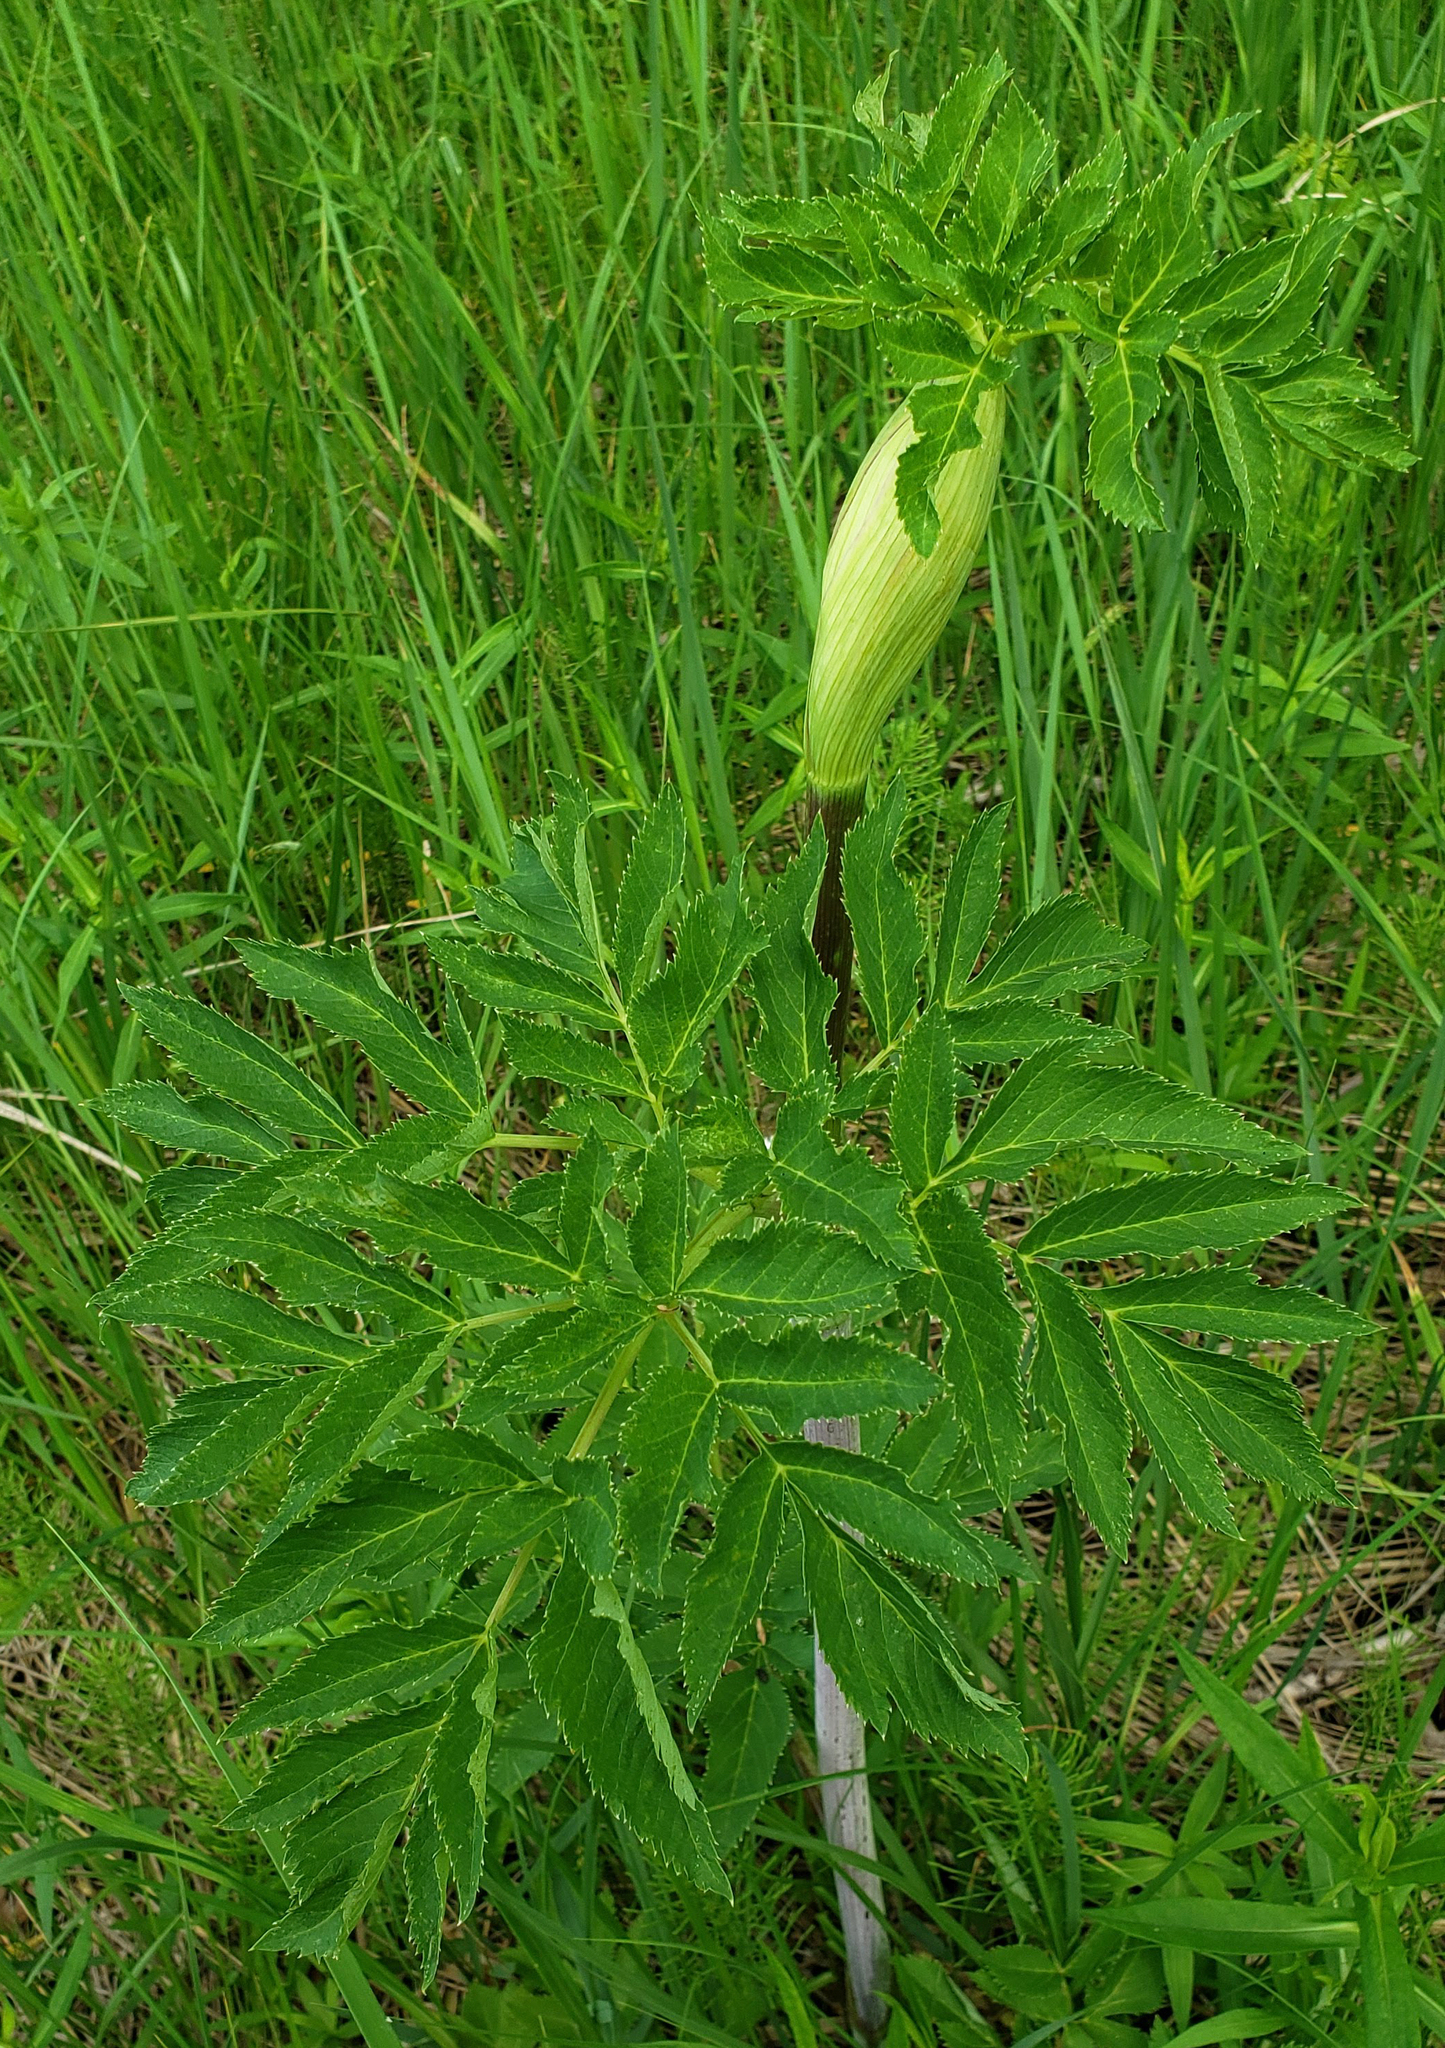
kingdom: Plantae
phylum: Tracheophyta
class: Magnoliopsida
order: Apiales
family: Apiaceae
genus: Angelica
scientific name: Angelica atropurpurea
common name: Great angelica
